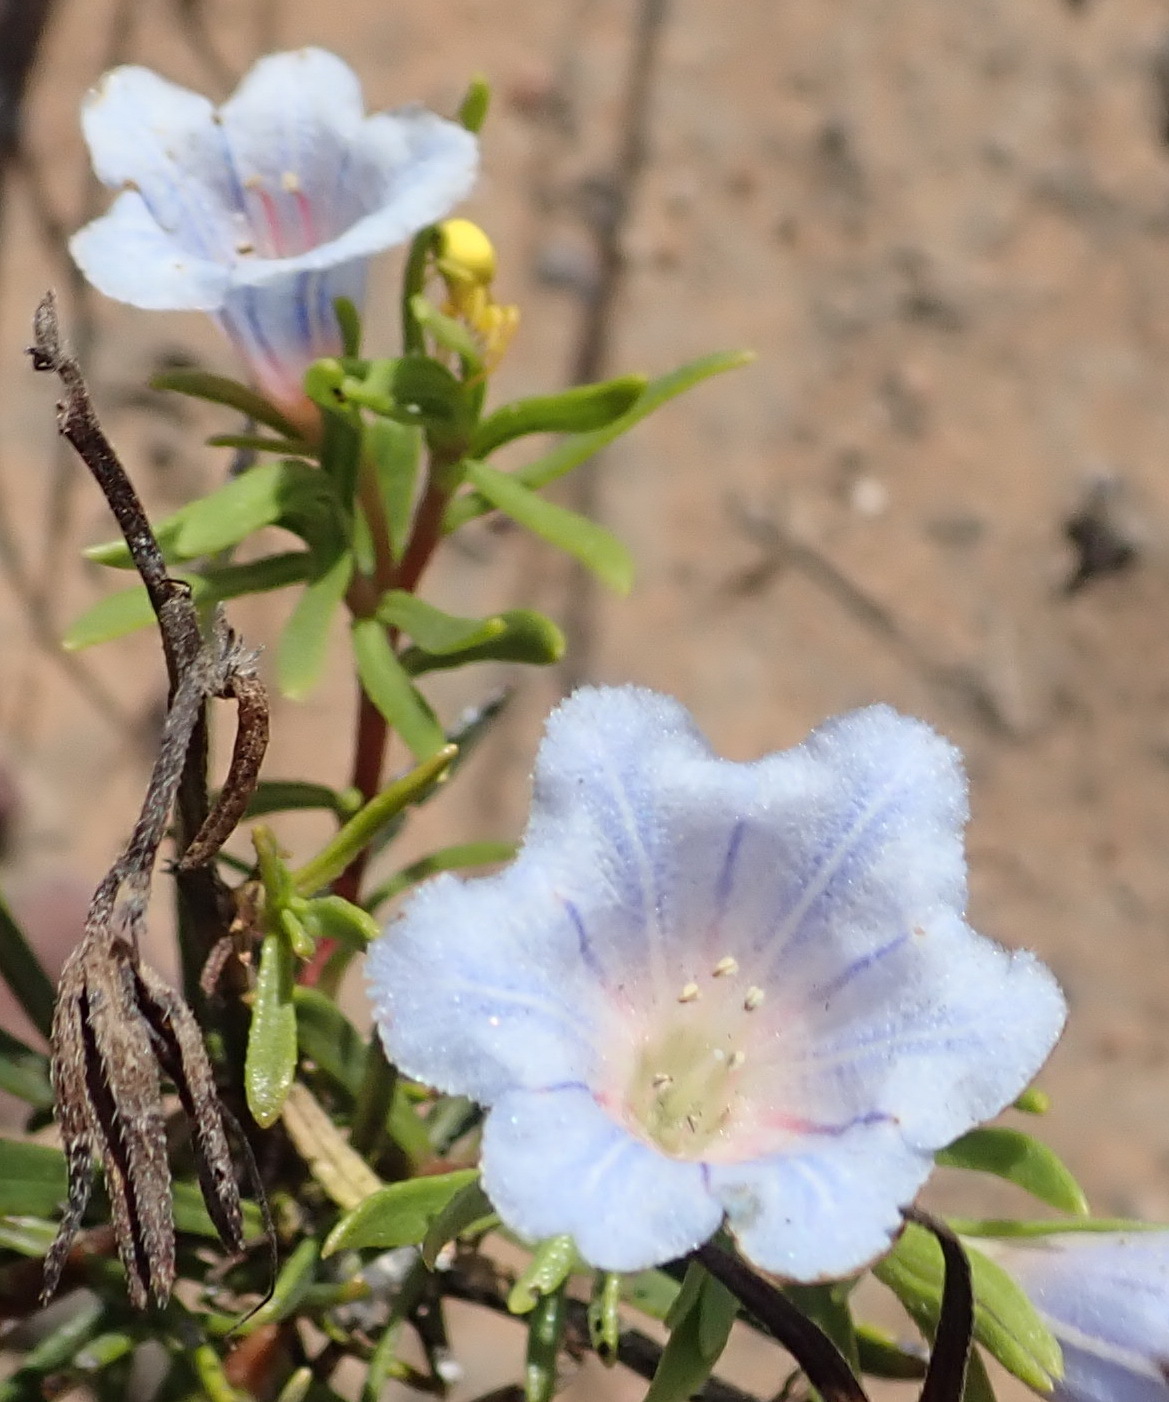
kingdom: Plantae
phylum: Tracheophyta
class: Magnoliopsida
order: Boraginales
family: Boraginaceae
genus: Lobostemon
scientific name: Lobostemon fruticosus
